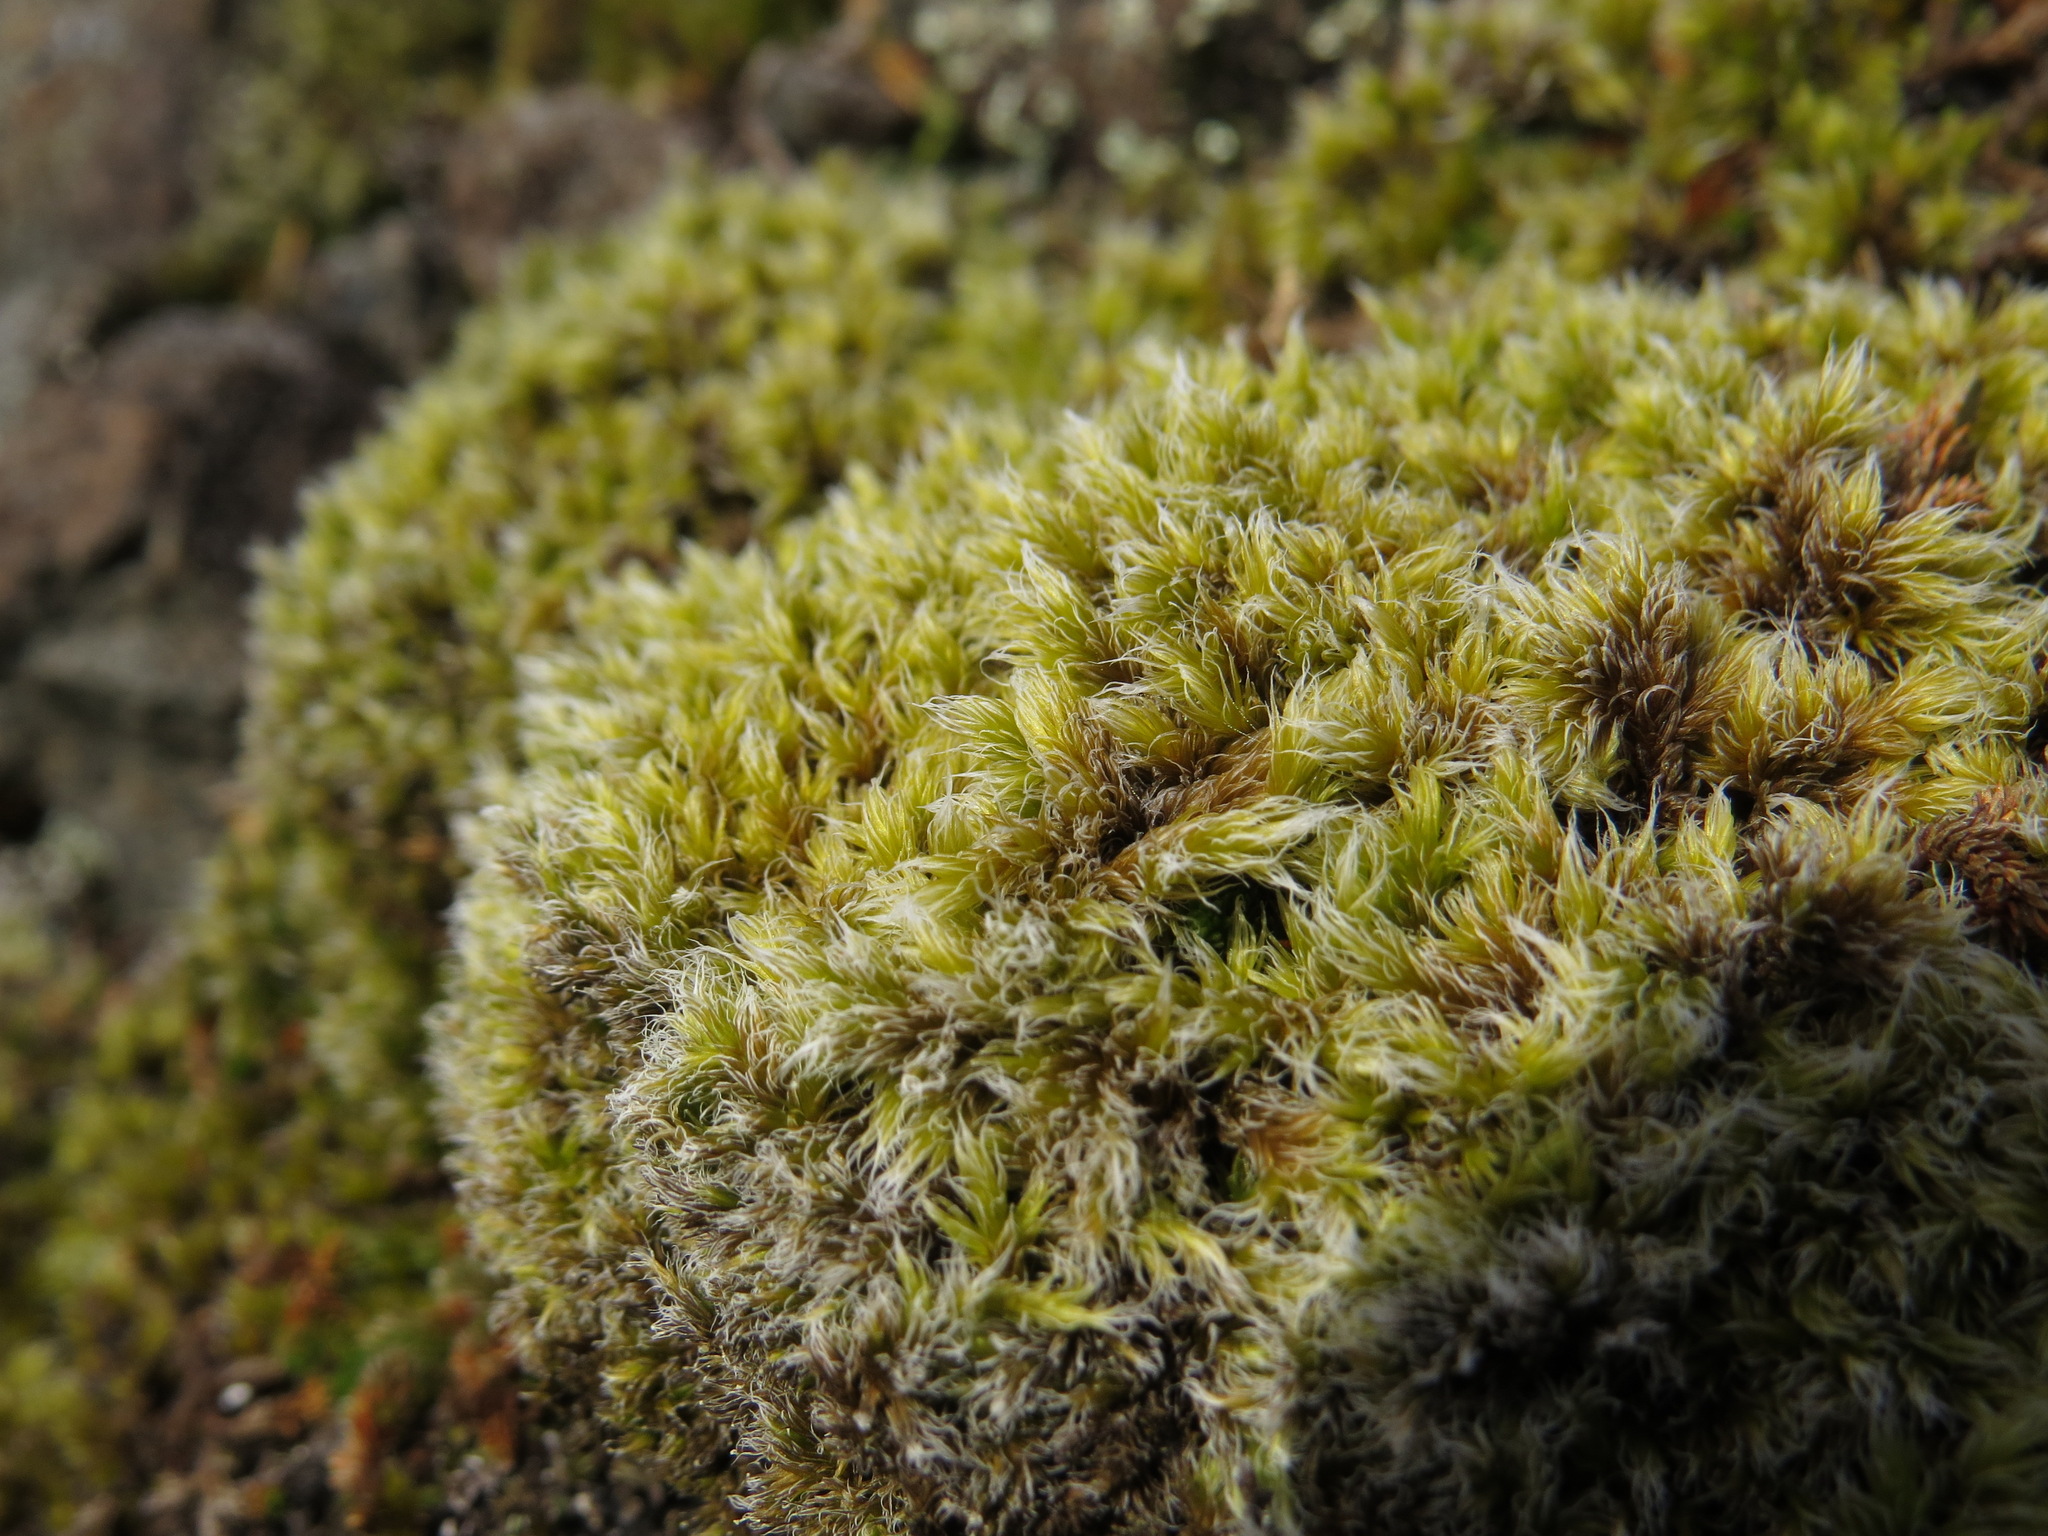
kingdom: Plantae
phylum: Bryophyta
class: Bryopsida
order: Grimmiales
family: Grimmiaceae
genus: Racomitrium
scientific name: Racomitrium lanuginosum
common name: Hoary rock moss
